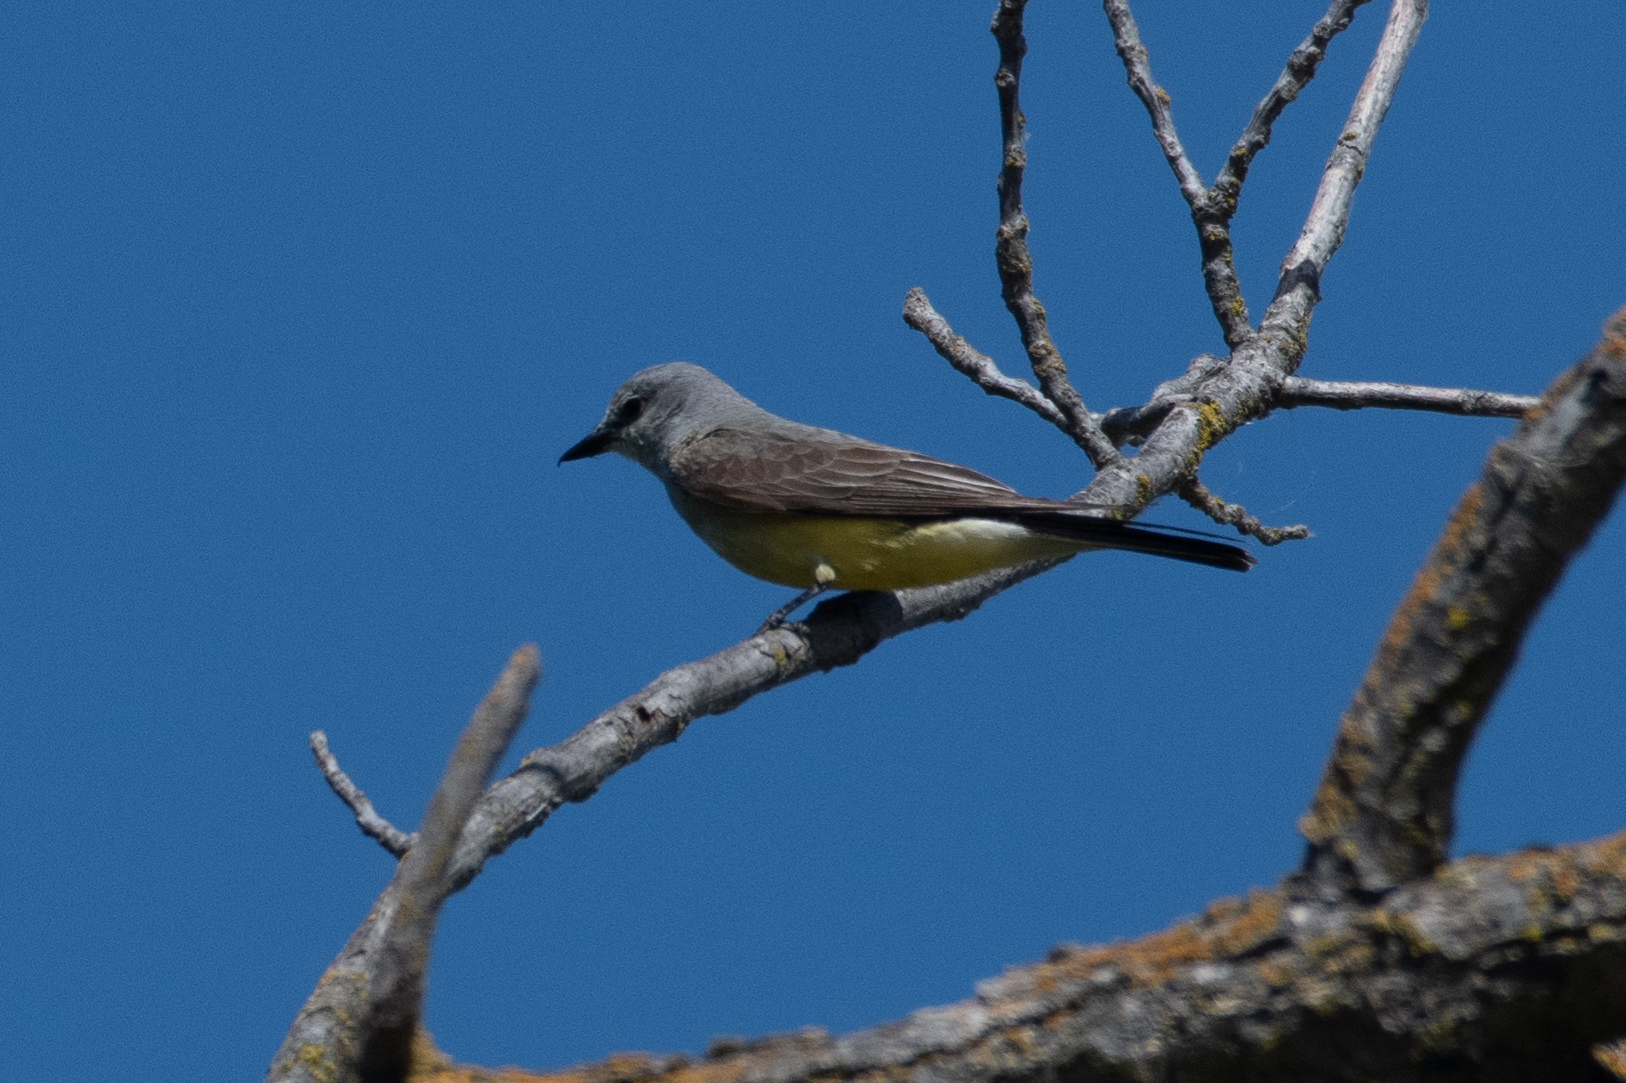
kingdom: Animalia
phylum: Chordata
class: Aves
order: Passeriformes
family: Tyrannidae
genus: Tyrannus
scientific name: Tyrannus verticalis
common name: Western kingbird
